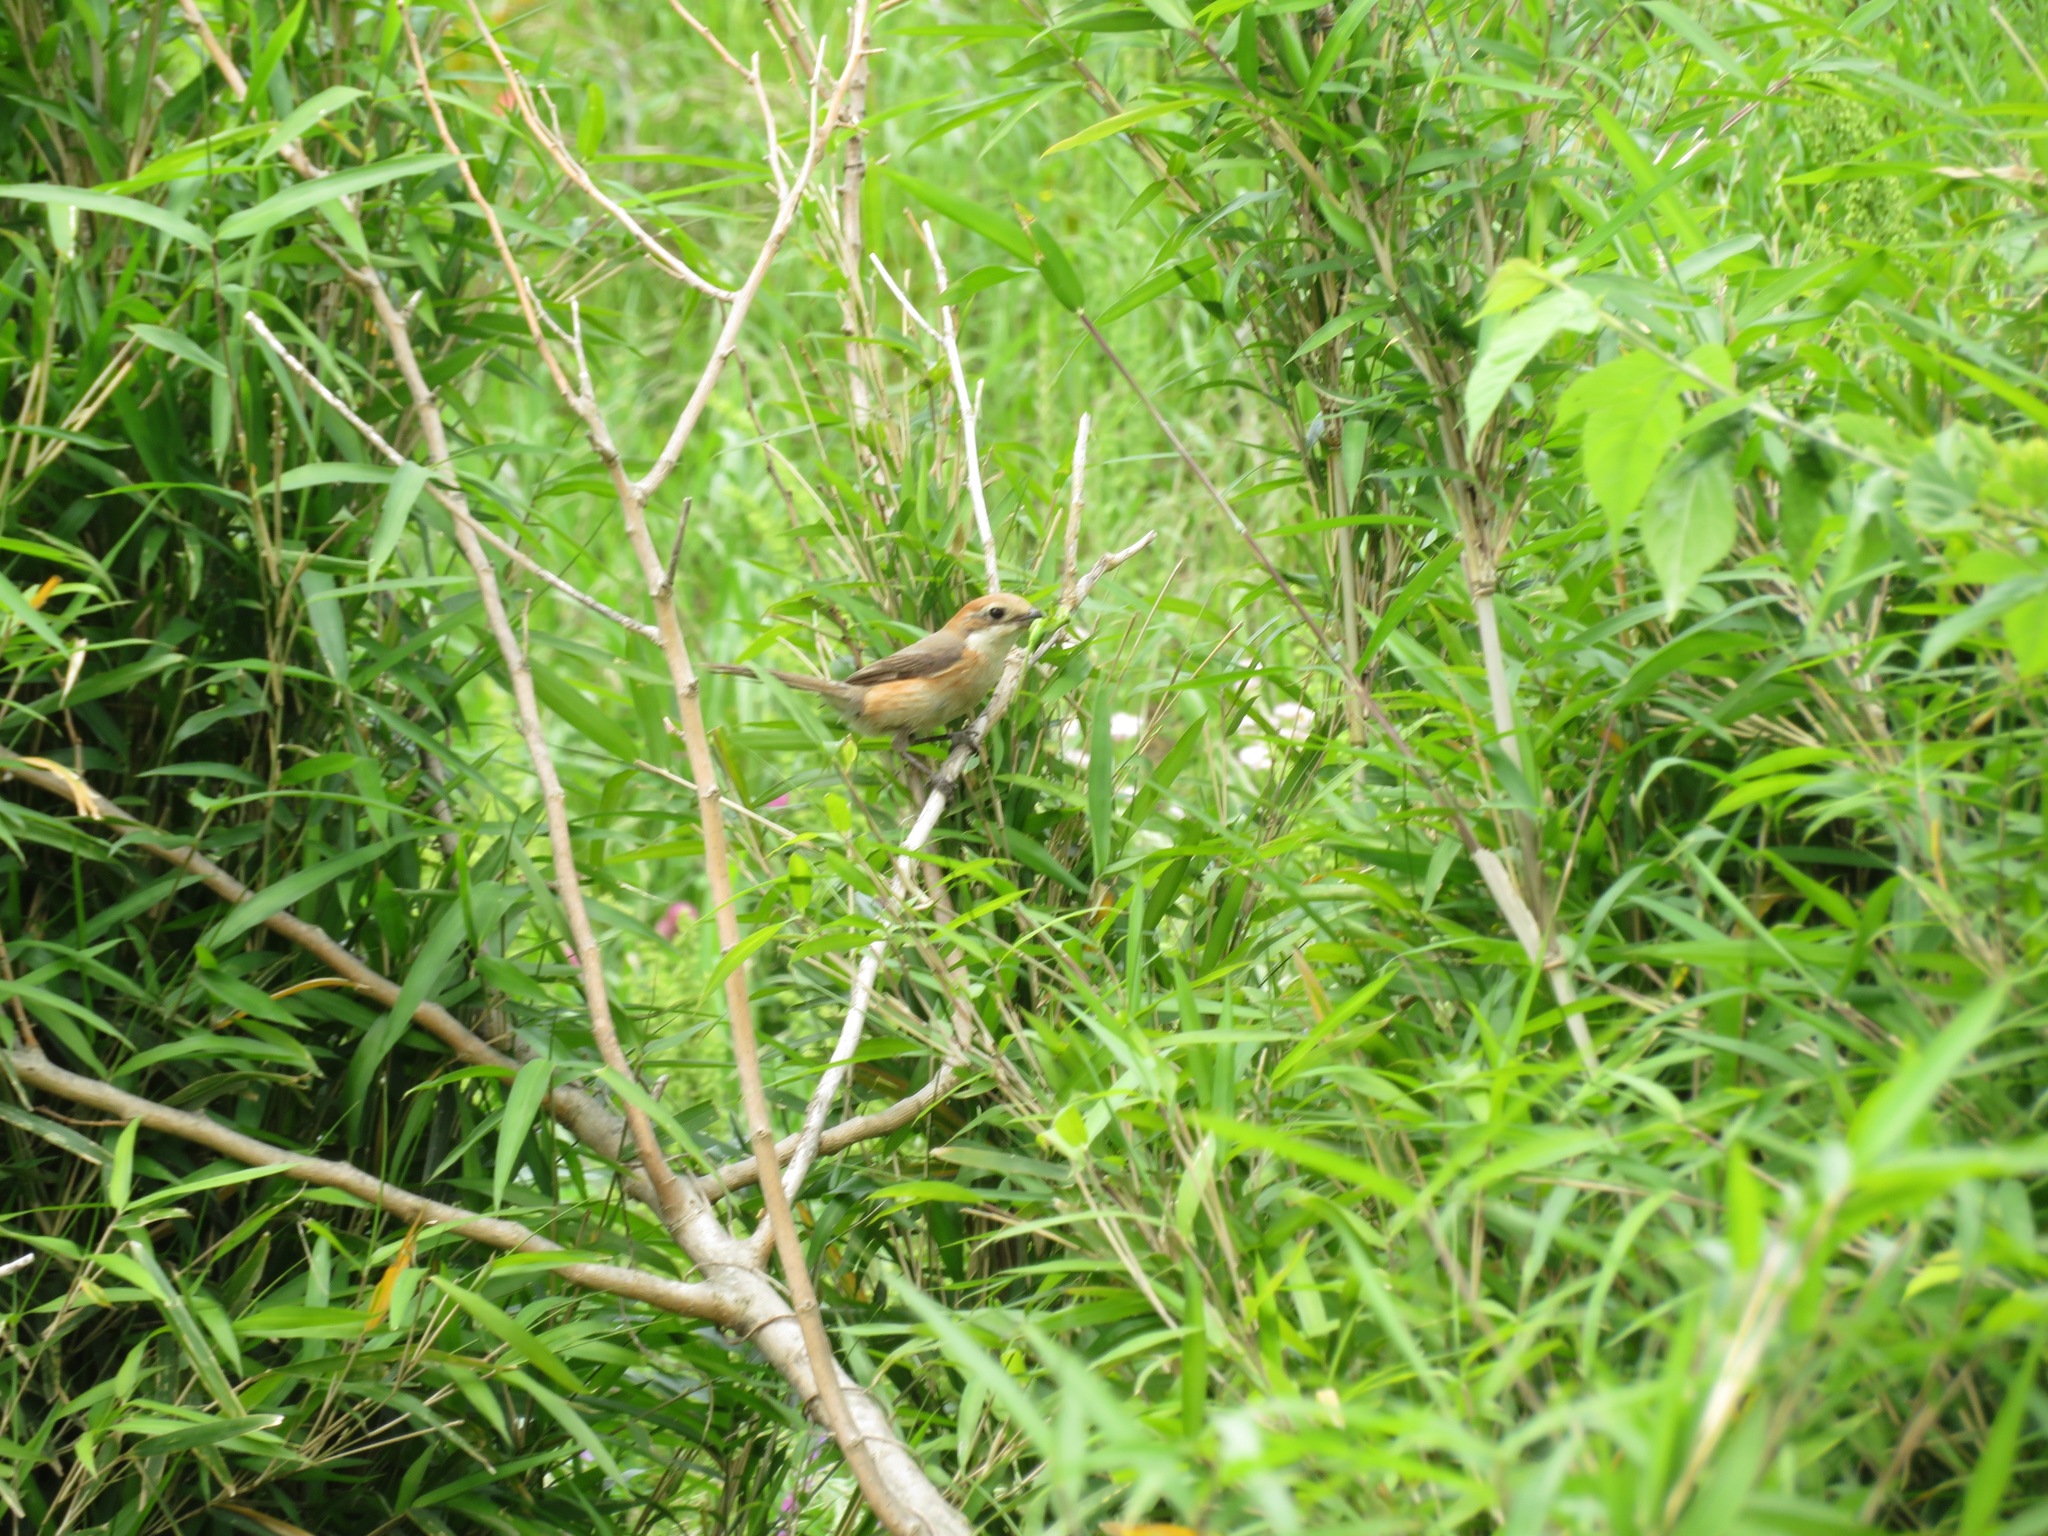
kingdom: Animalia
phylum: Chordata
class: Aves
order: Passeriformes
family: Laniidae
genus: Lanius
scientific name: Lanius bucephalus
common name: Bull-headed shrike
